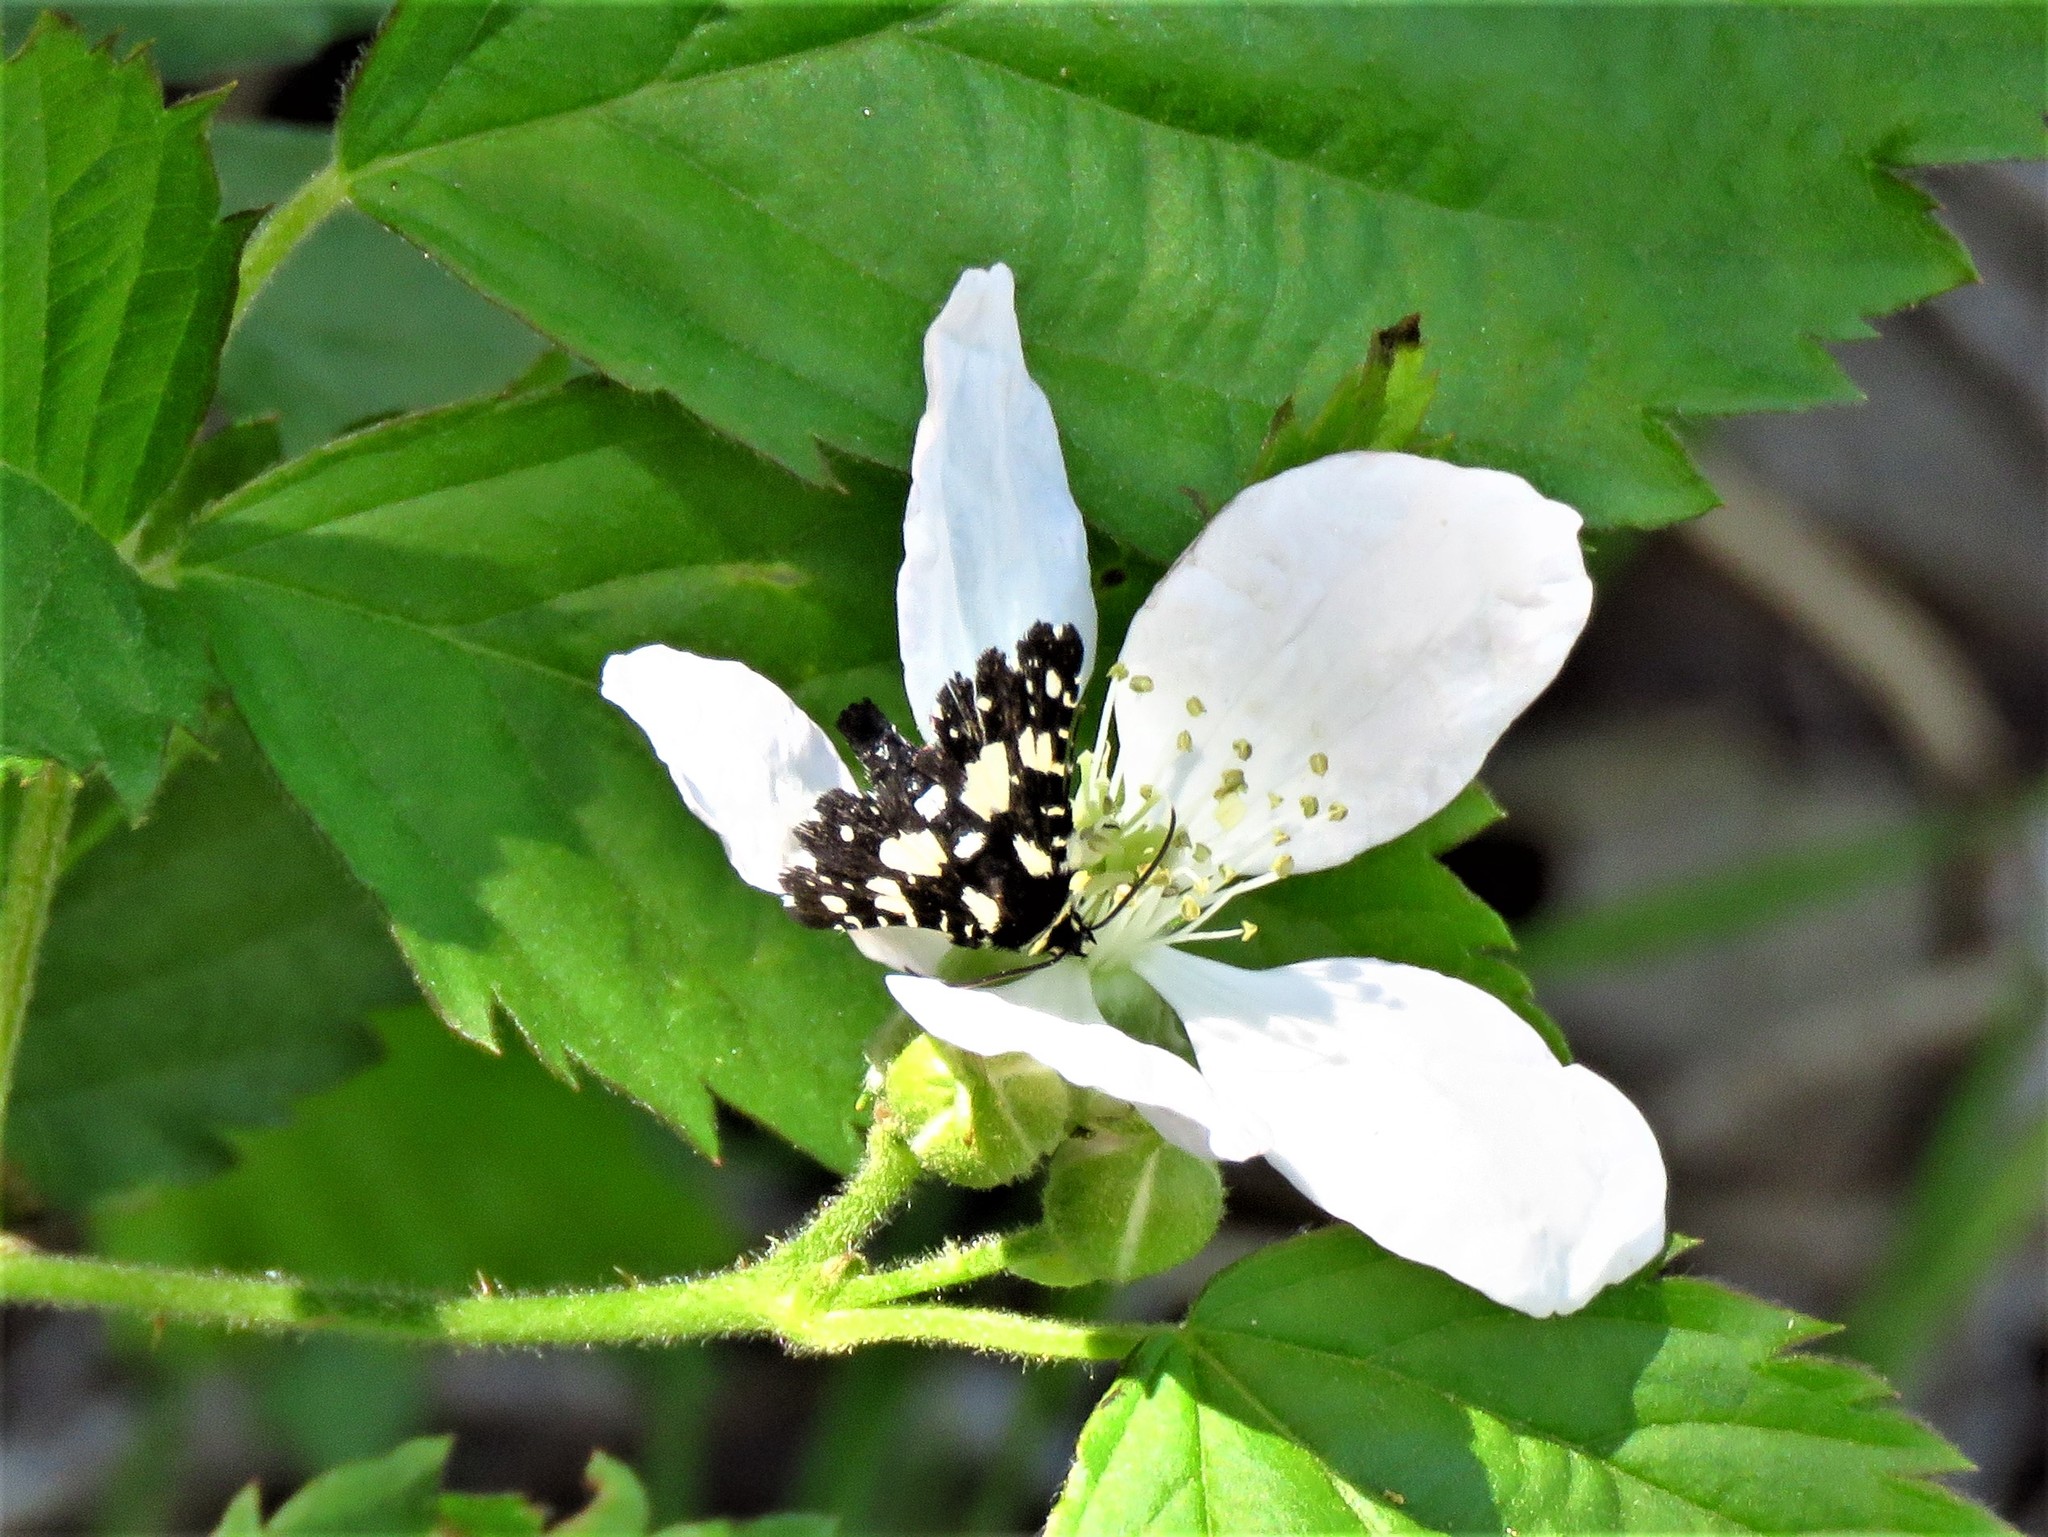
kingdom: Animalia
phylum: Arthropoda
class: Insecta
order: Lepidoptera
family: Thyrididae
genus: Pseudothyris
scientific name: Pseudothyris sepulchralis
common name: Mournful thyris moth
